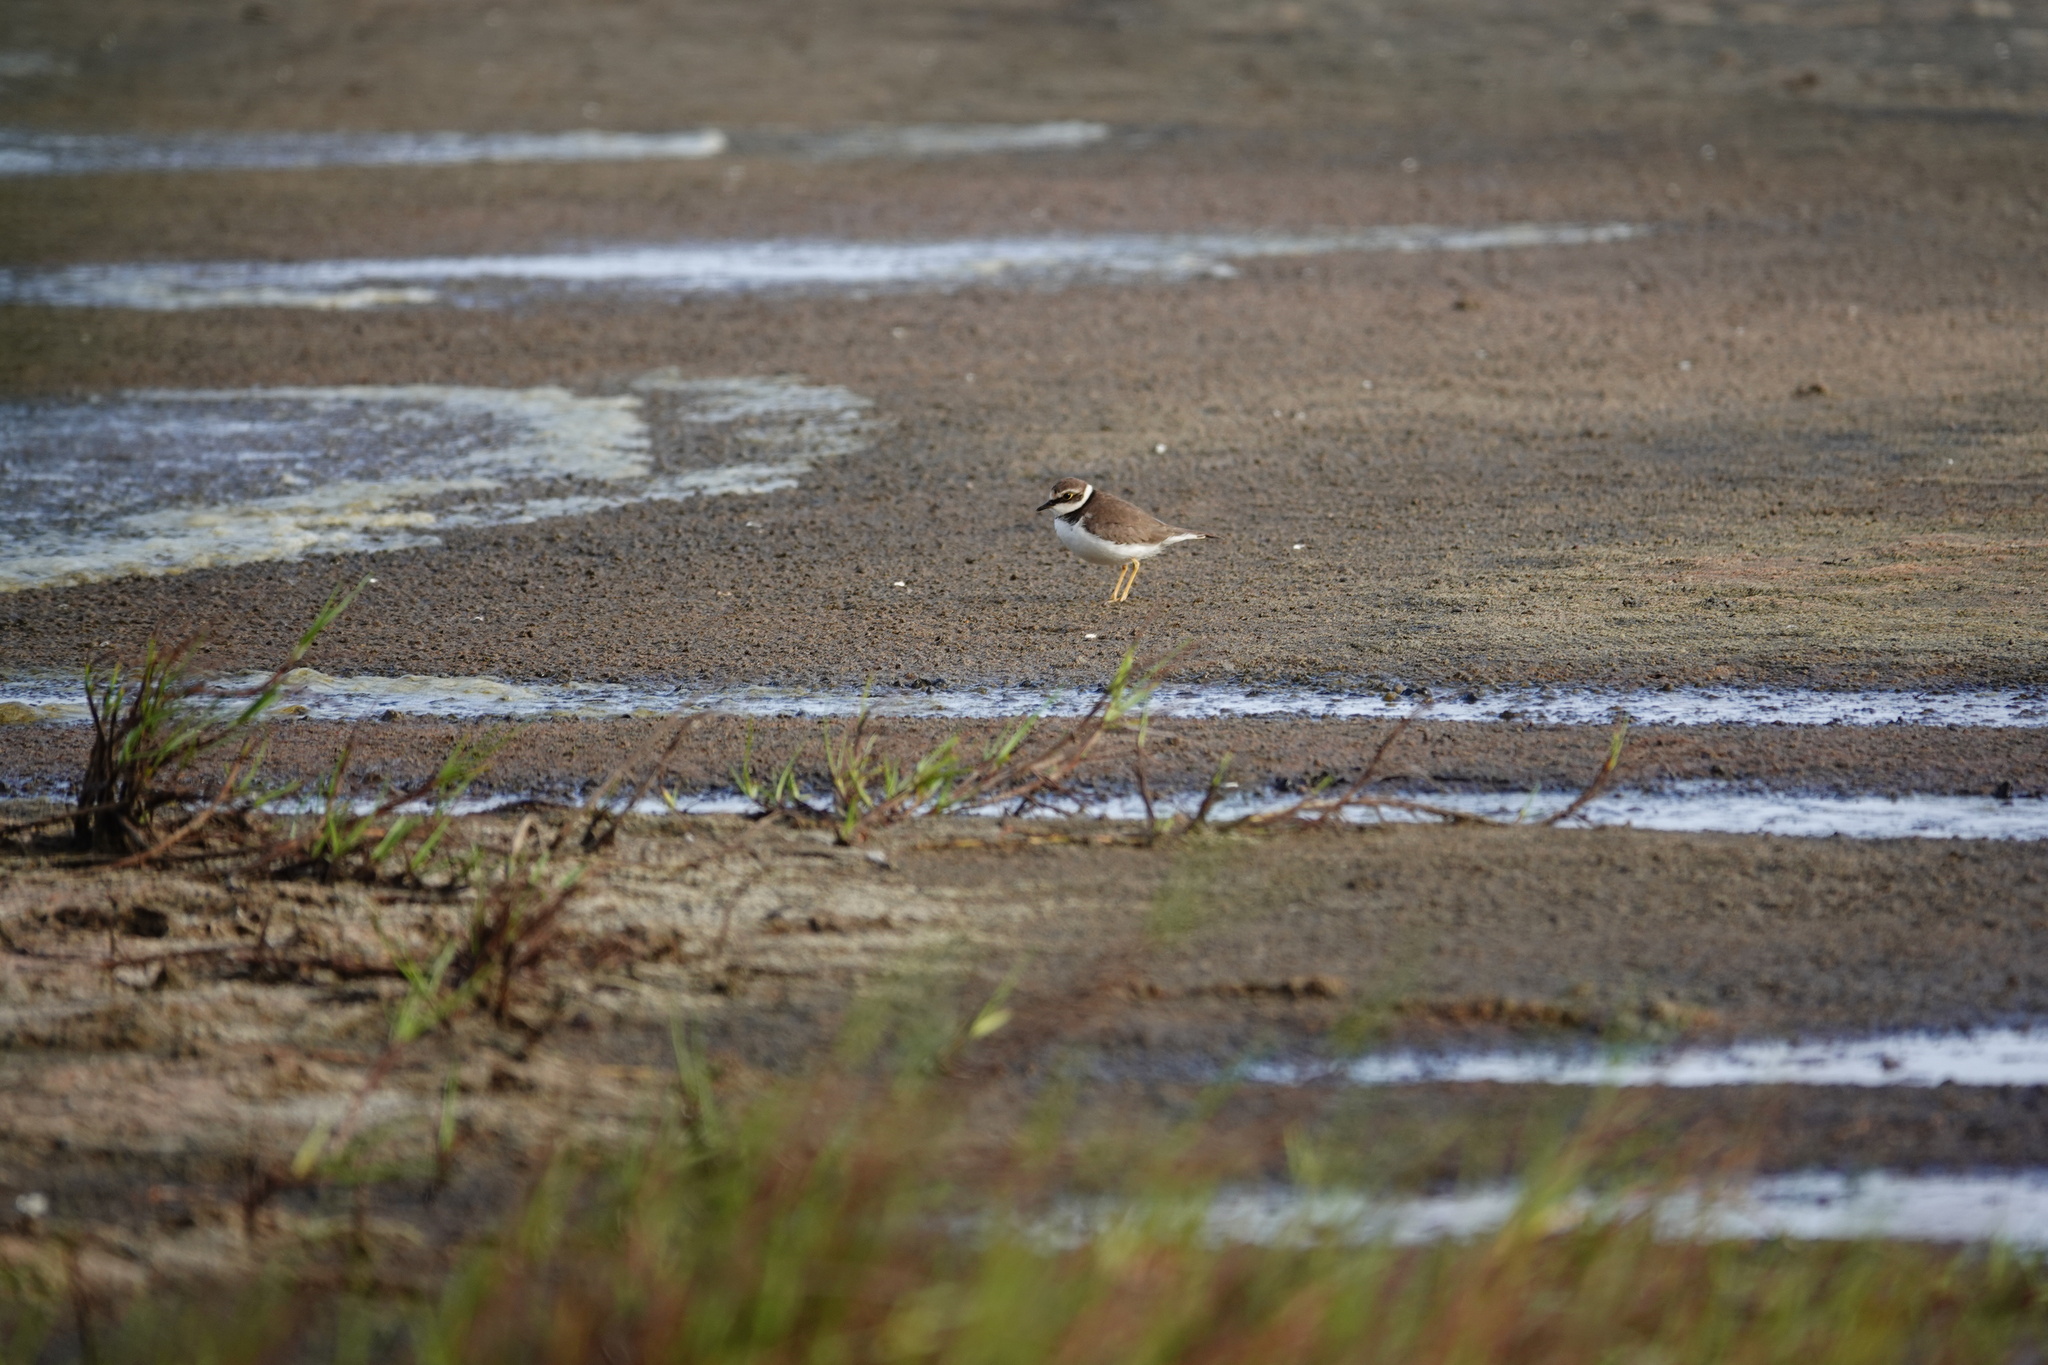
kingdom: Animalia
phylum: Chordata
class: Aves
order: Charadriiformes
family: Charadriidae
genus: Charadrius
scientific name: Charadrius dubius
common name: Little ringed plover
